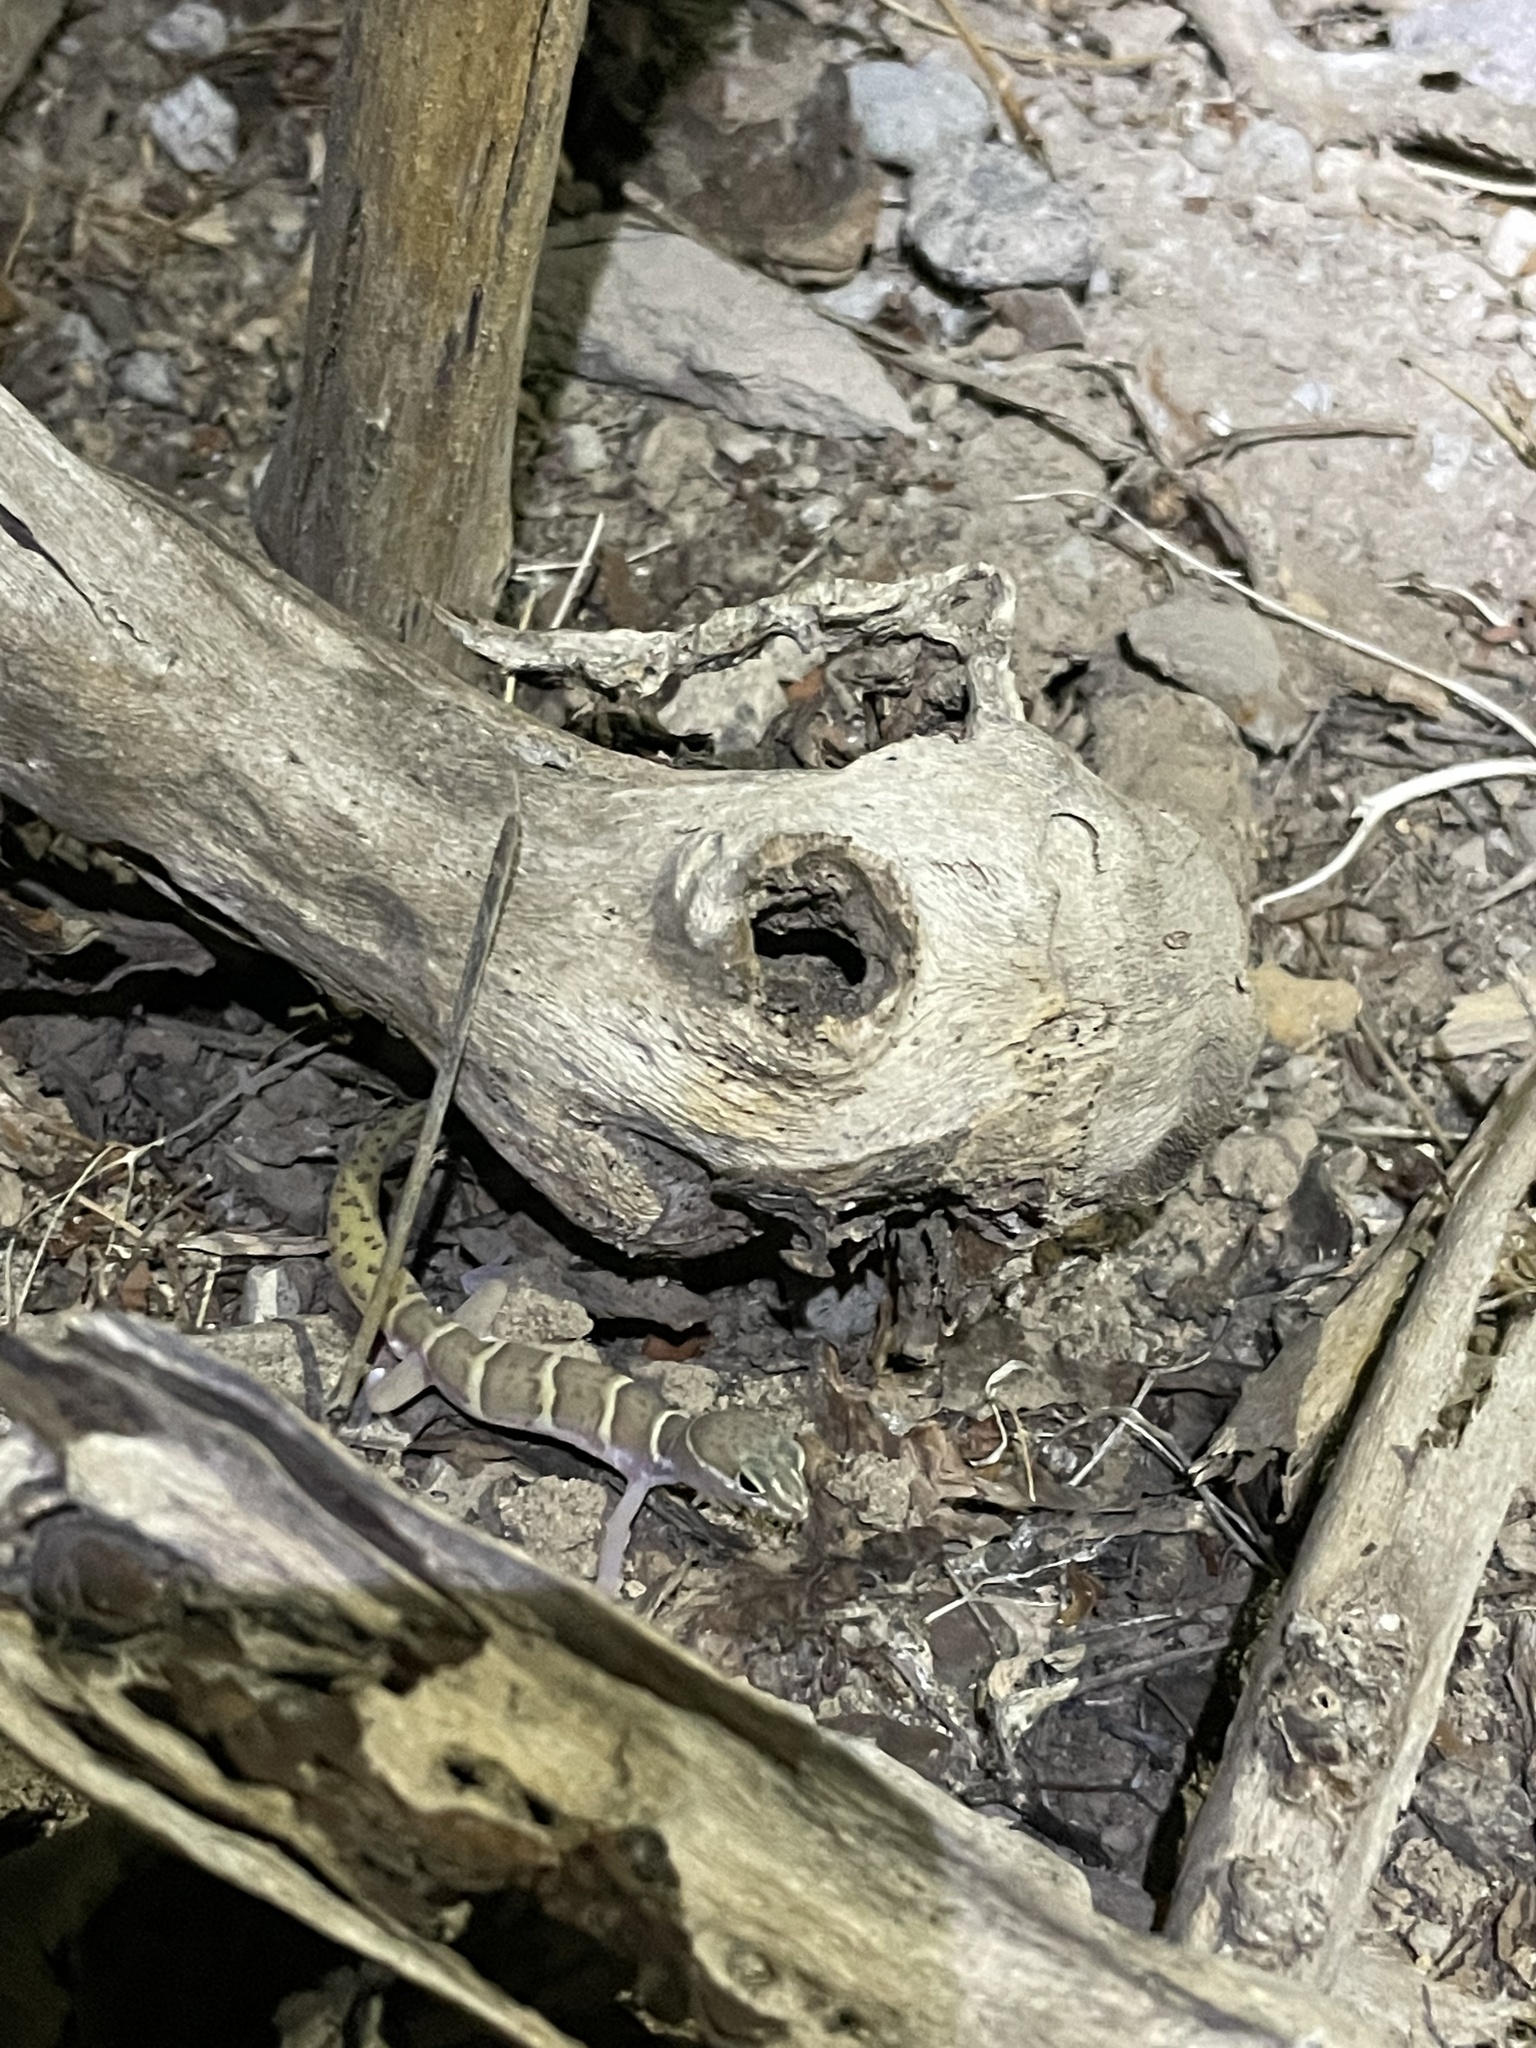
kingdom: Animalia
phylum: Chordata
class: Squamata
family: Eublepharidae
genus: Coleonyx
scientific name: Coleonyx variegatus
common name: Western banded gecko
